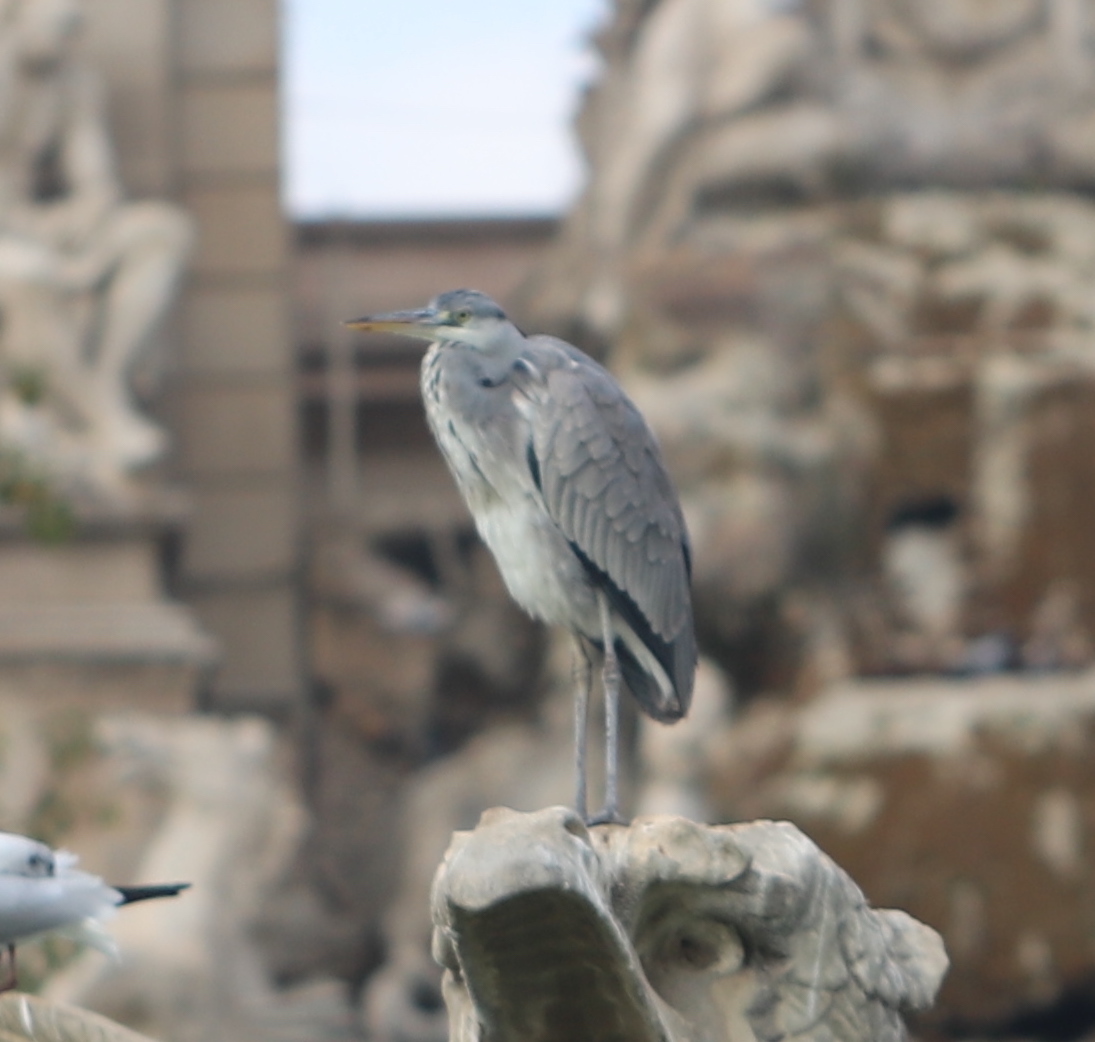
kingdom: Animalia
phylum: Chordata
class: Aves
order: Pelecaniformes
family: Ardeidae
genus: Ardea
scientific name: Ardea cinerea
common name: Grey heron
